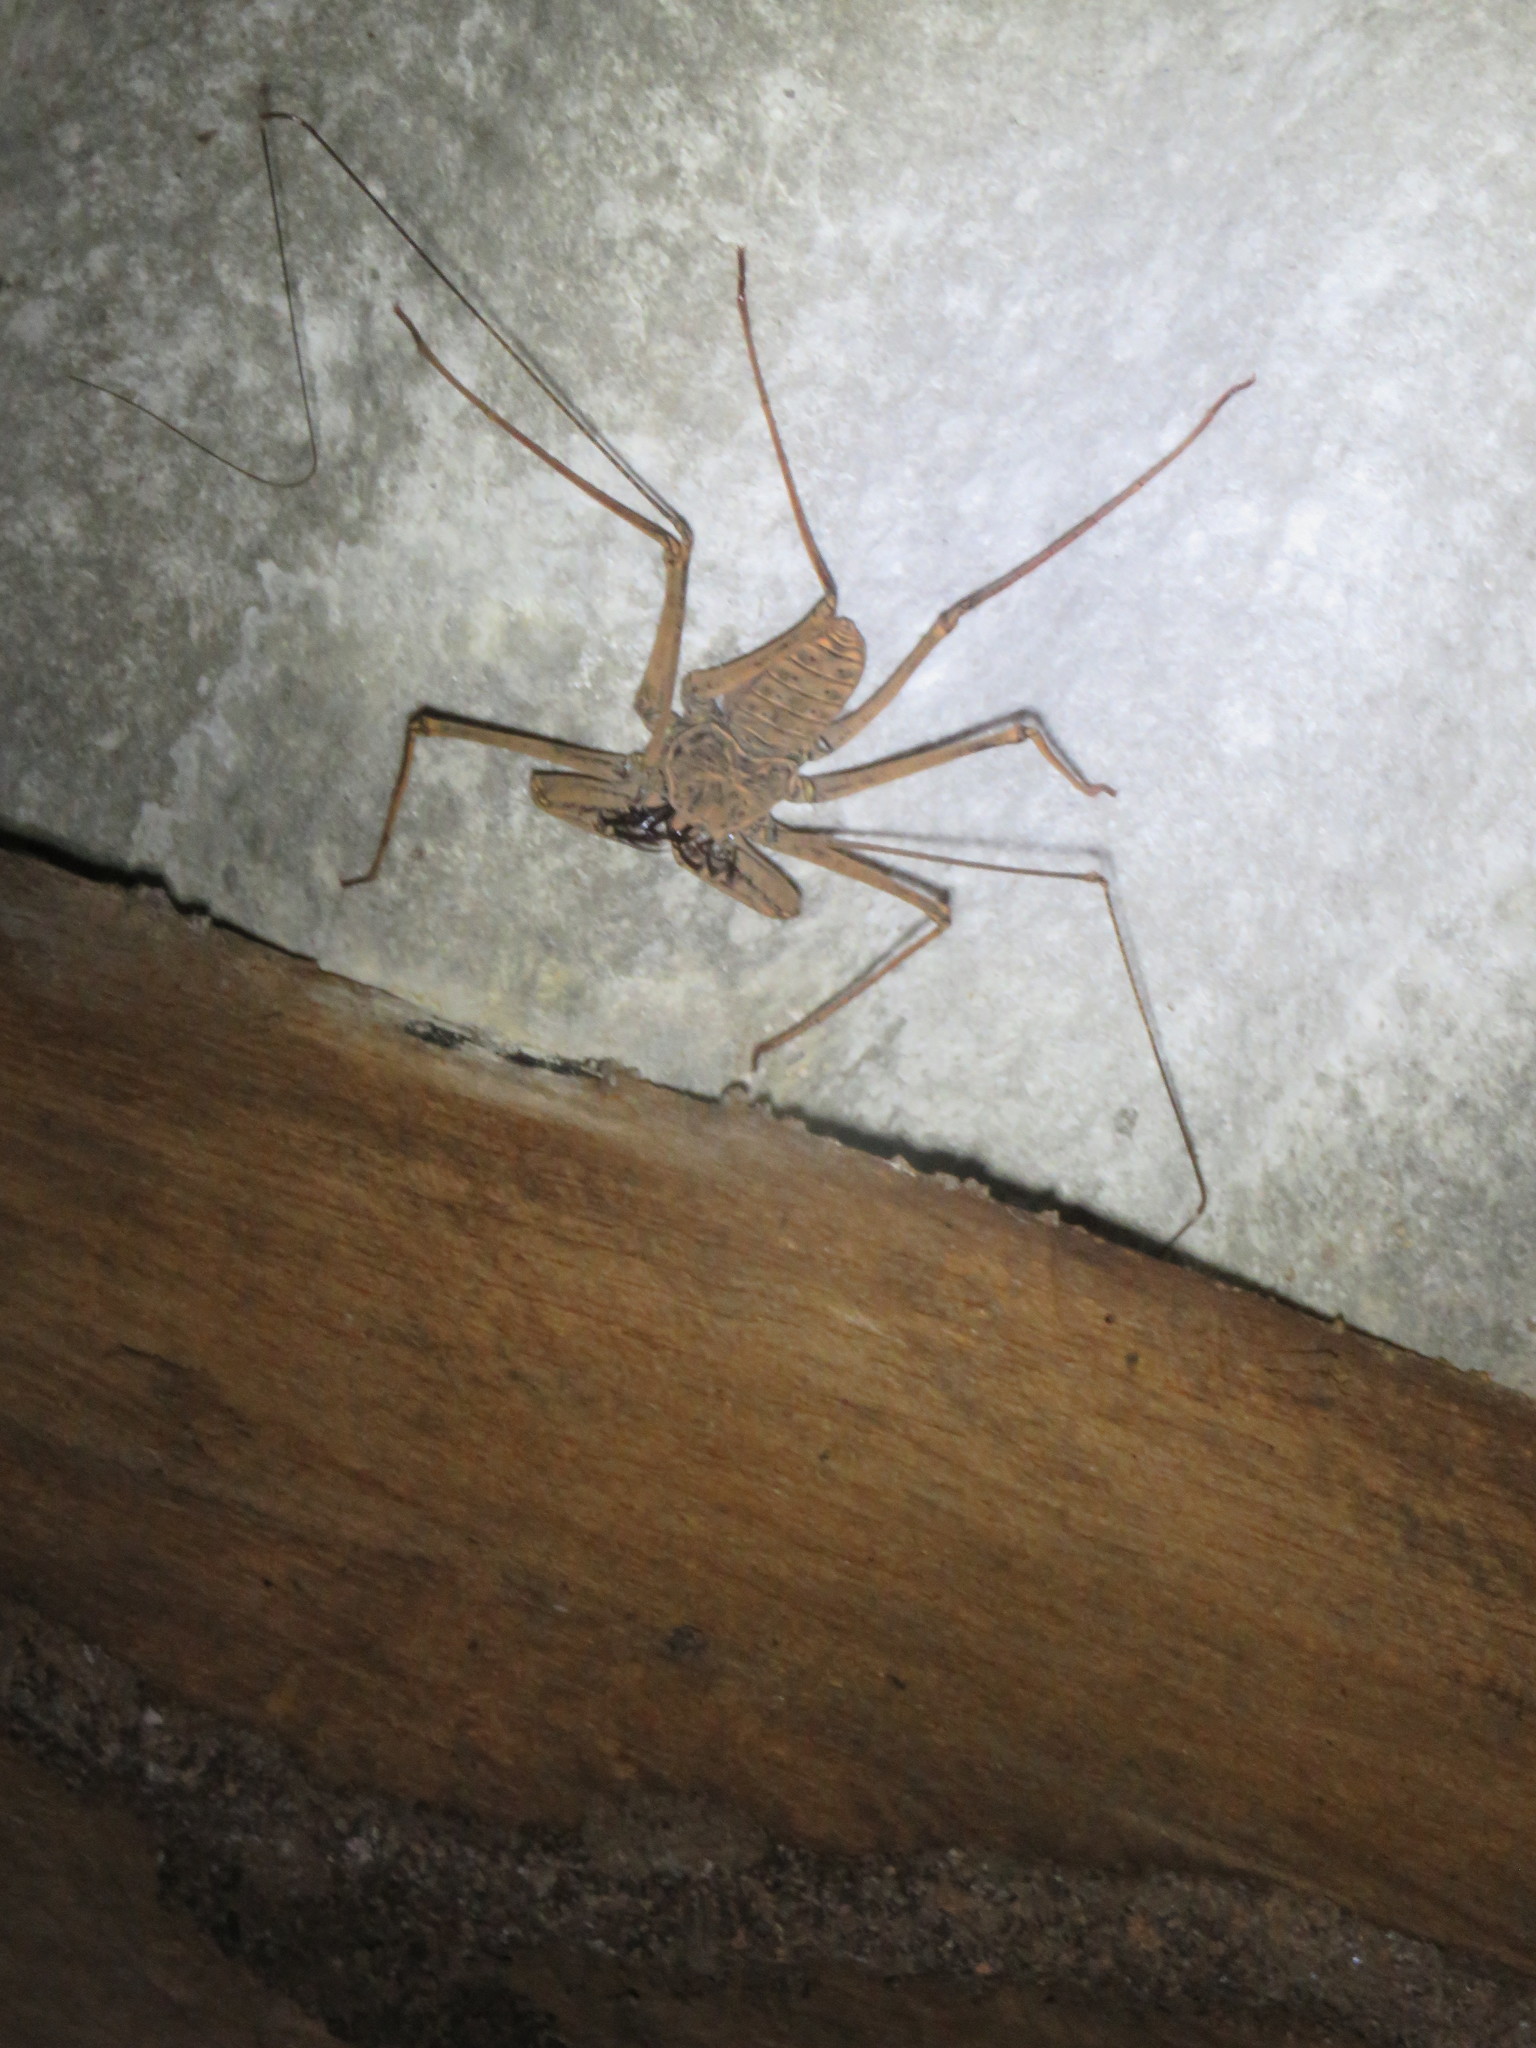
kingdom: Animalia
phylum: Arthropoda
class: Arachnida
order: Amblypygi
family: Phrynidae
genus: Heterophrynus
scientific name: Heterophrynus longicornis
